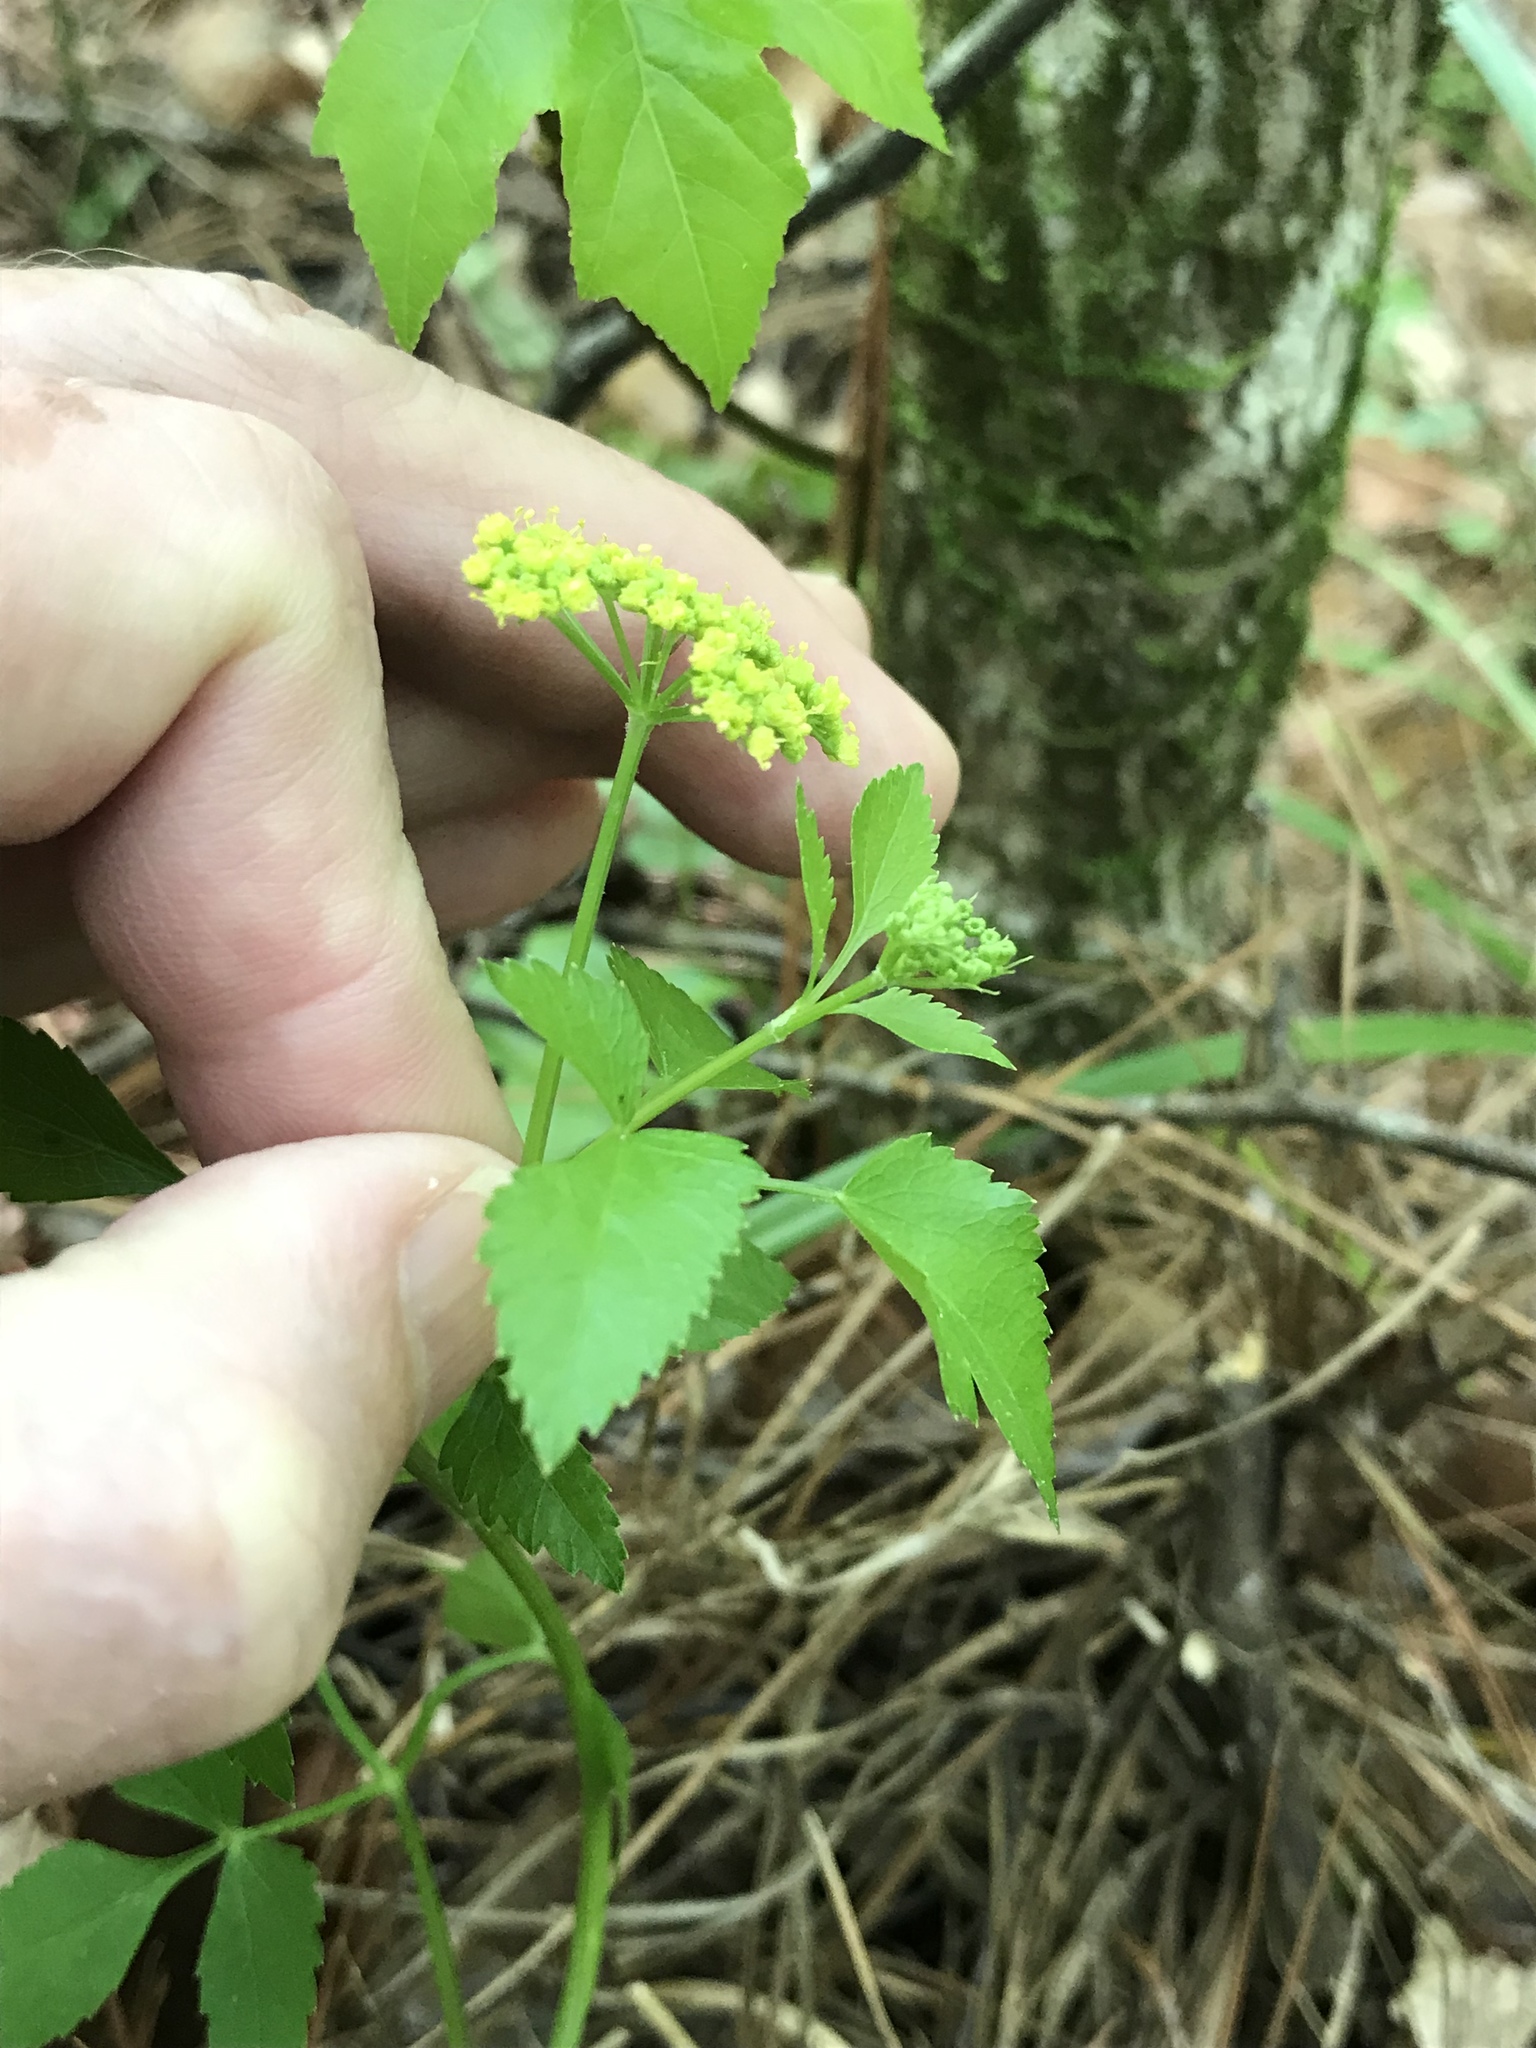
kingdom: Plantae
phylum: Tracheophyta
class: Magnoliopsida
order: Apiales
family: Apiaceae
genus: Thaspium
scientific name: Thaspium trifoliatum
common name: Purple meadow-parsnip
